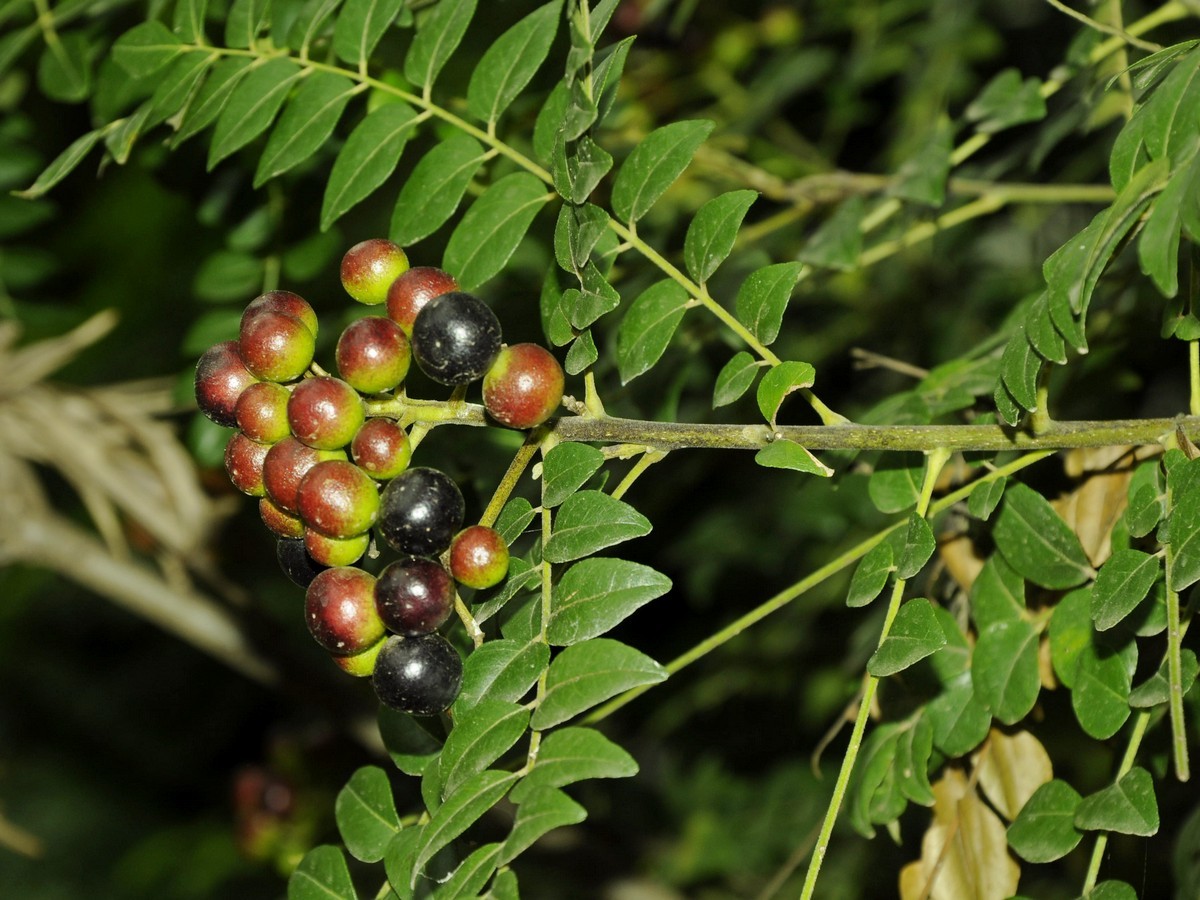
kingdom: Plantae
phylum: Tracheophyta
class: Magnoliopsida
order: Sapindales
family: Rutaceae
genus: Murraya
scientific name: Murraya koenigii
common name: Curry-plant
